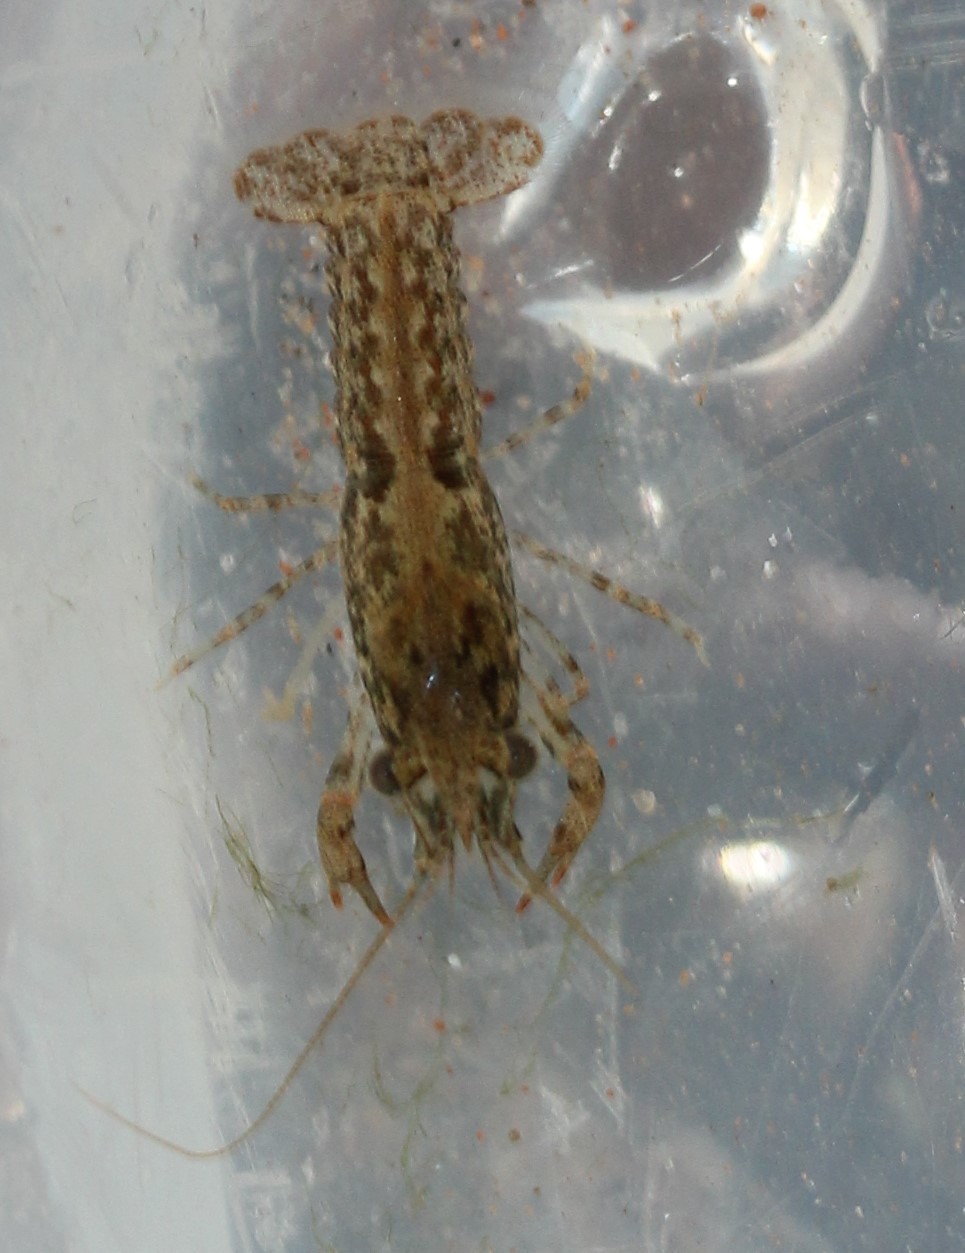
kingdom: Animalia
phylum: Arthropoda
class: Malacostraca
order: Decapoda
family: Cambaridae
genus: Faxonius
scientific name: Faxonius virilis
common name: Virile crayfish
